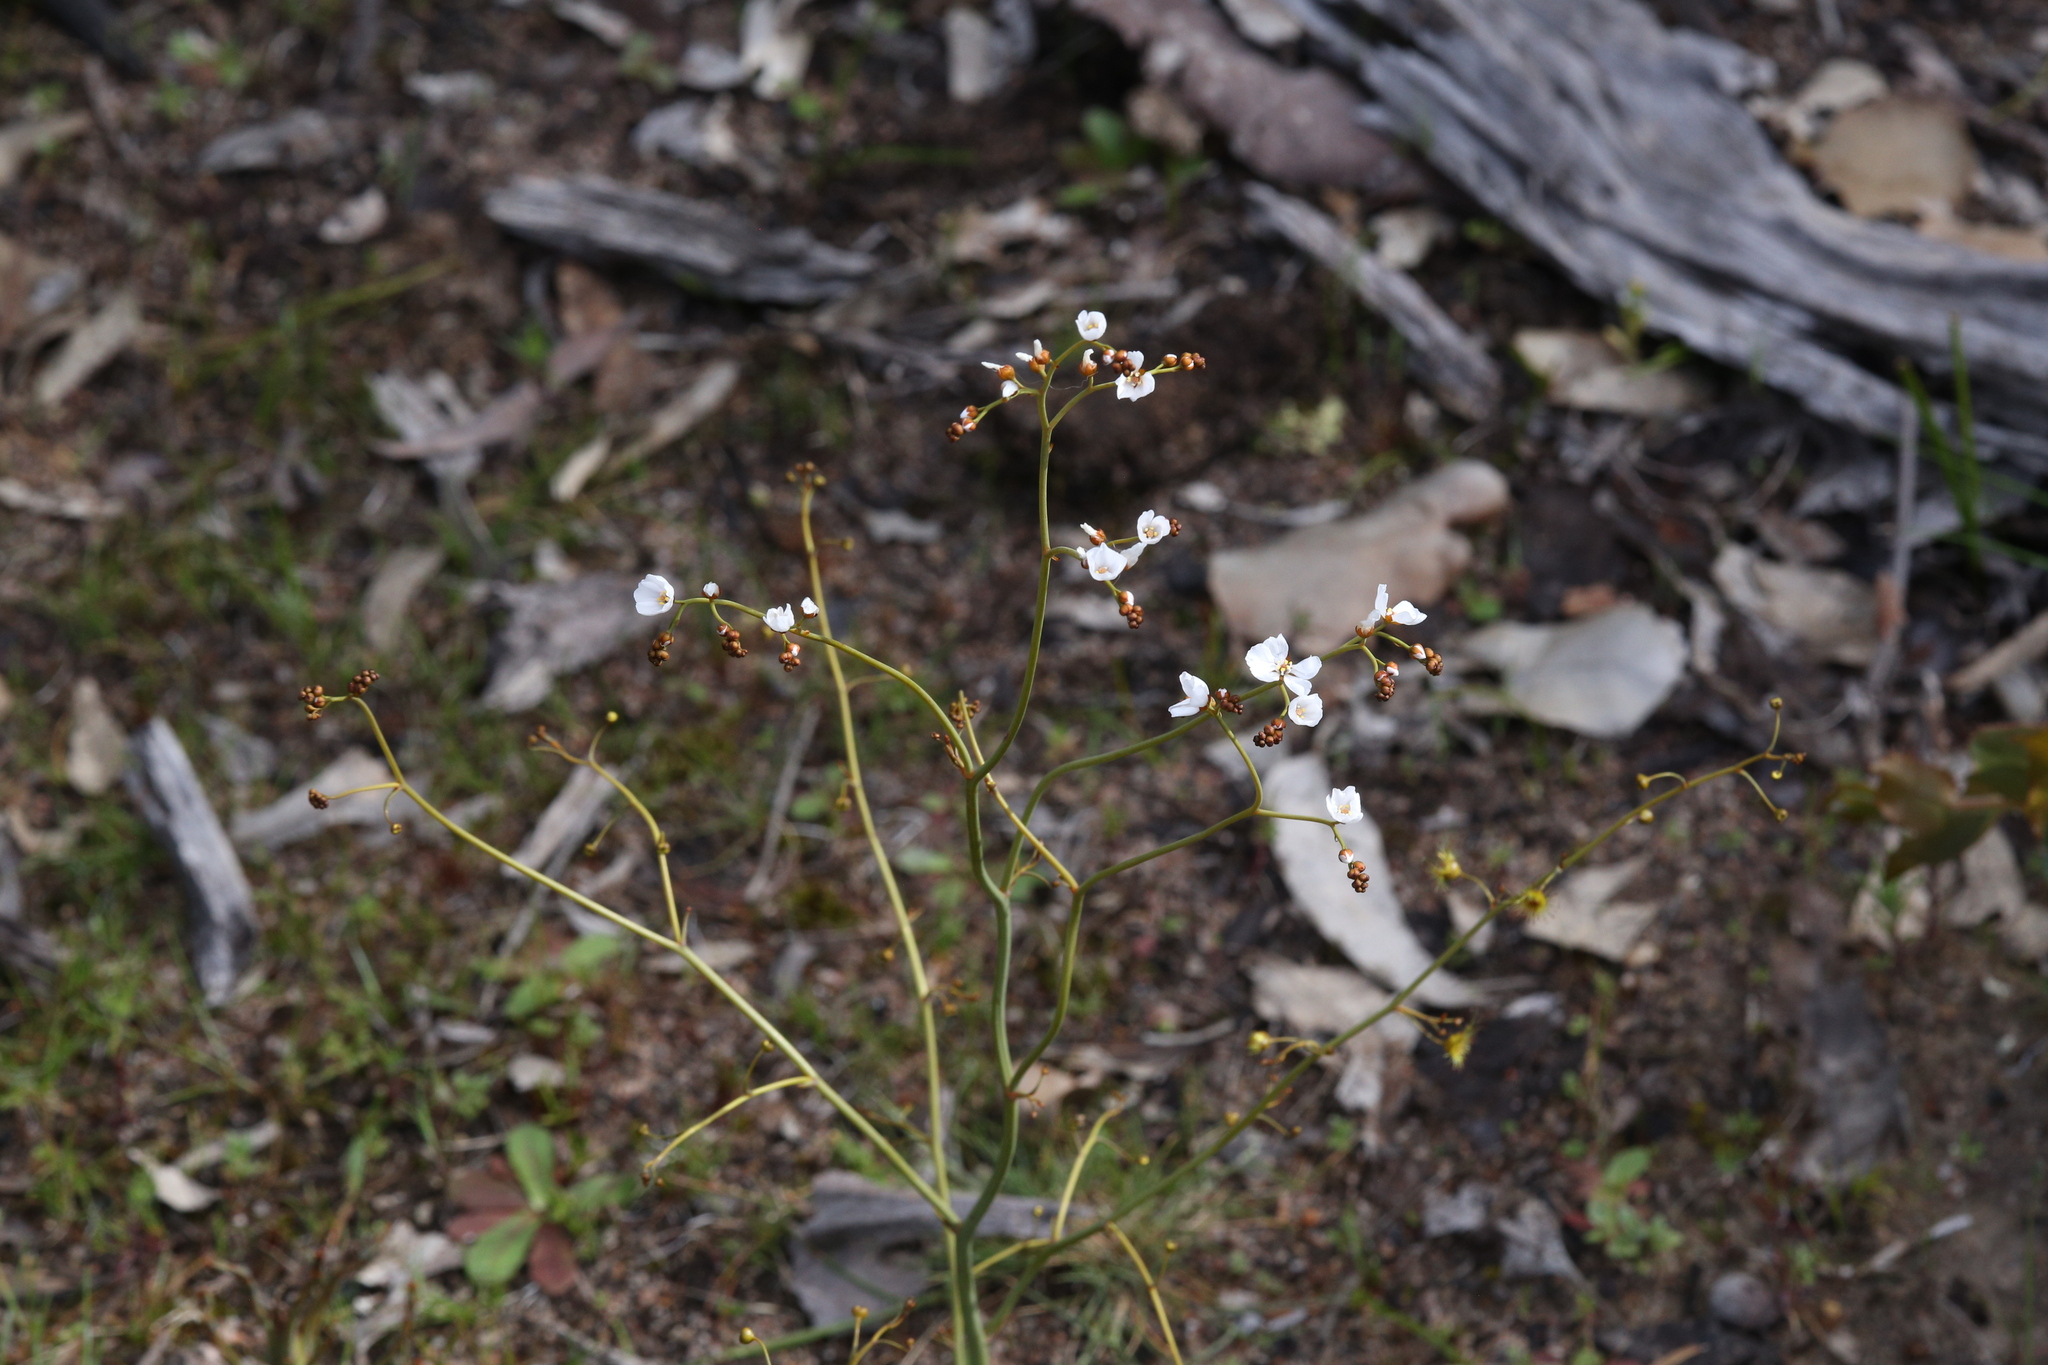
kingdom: Plantae
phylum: Tracheophyta
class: Magnoliopsida
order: Caryophyllales
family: Droseraceae
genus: Drosera
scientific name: Drosera gigantea
